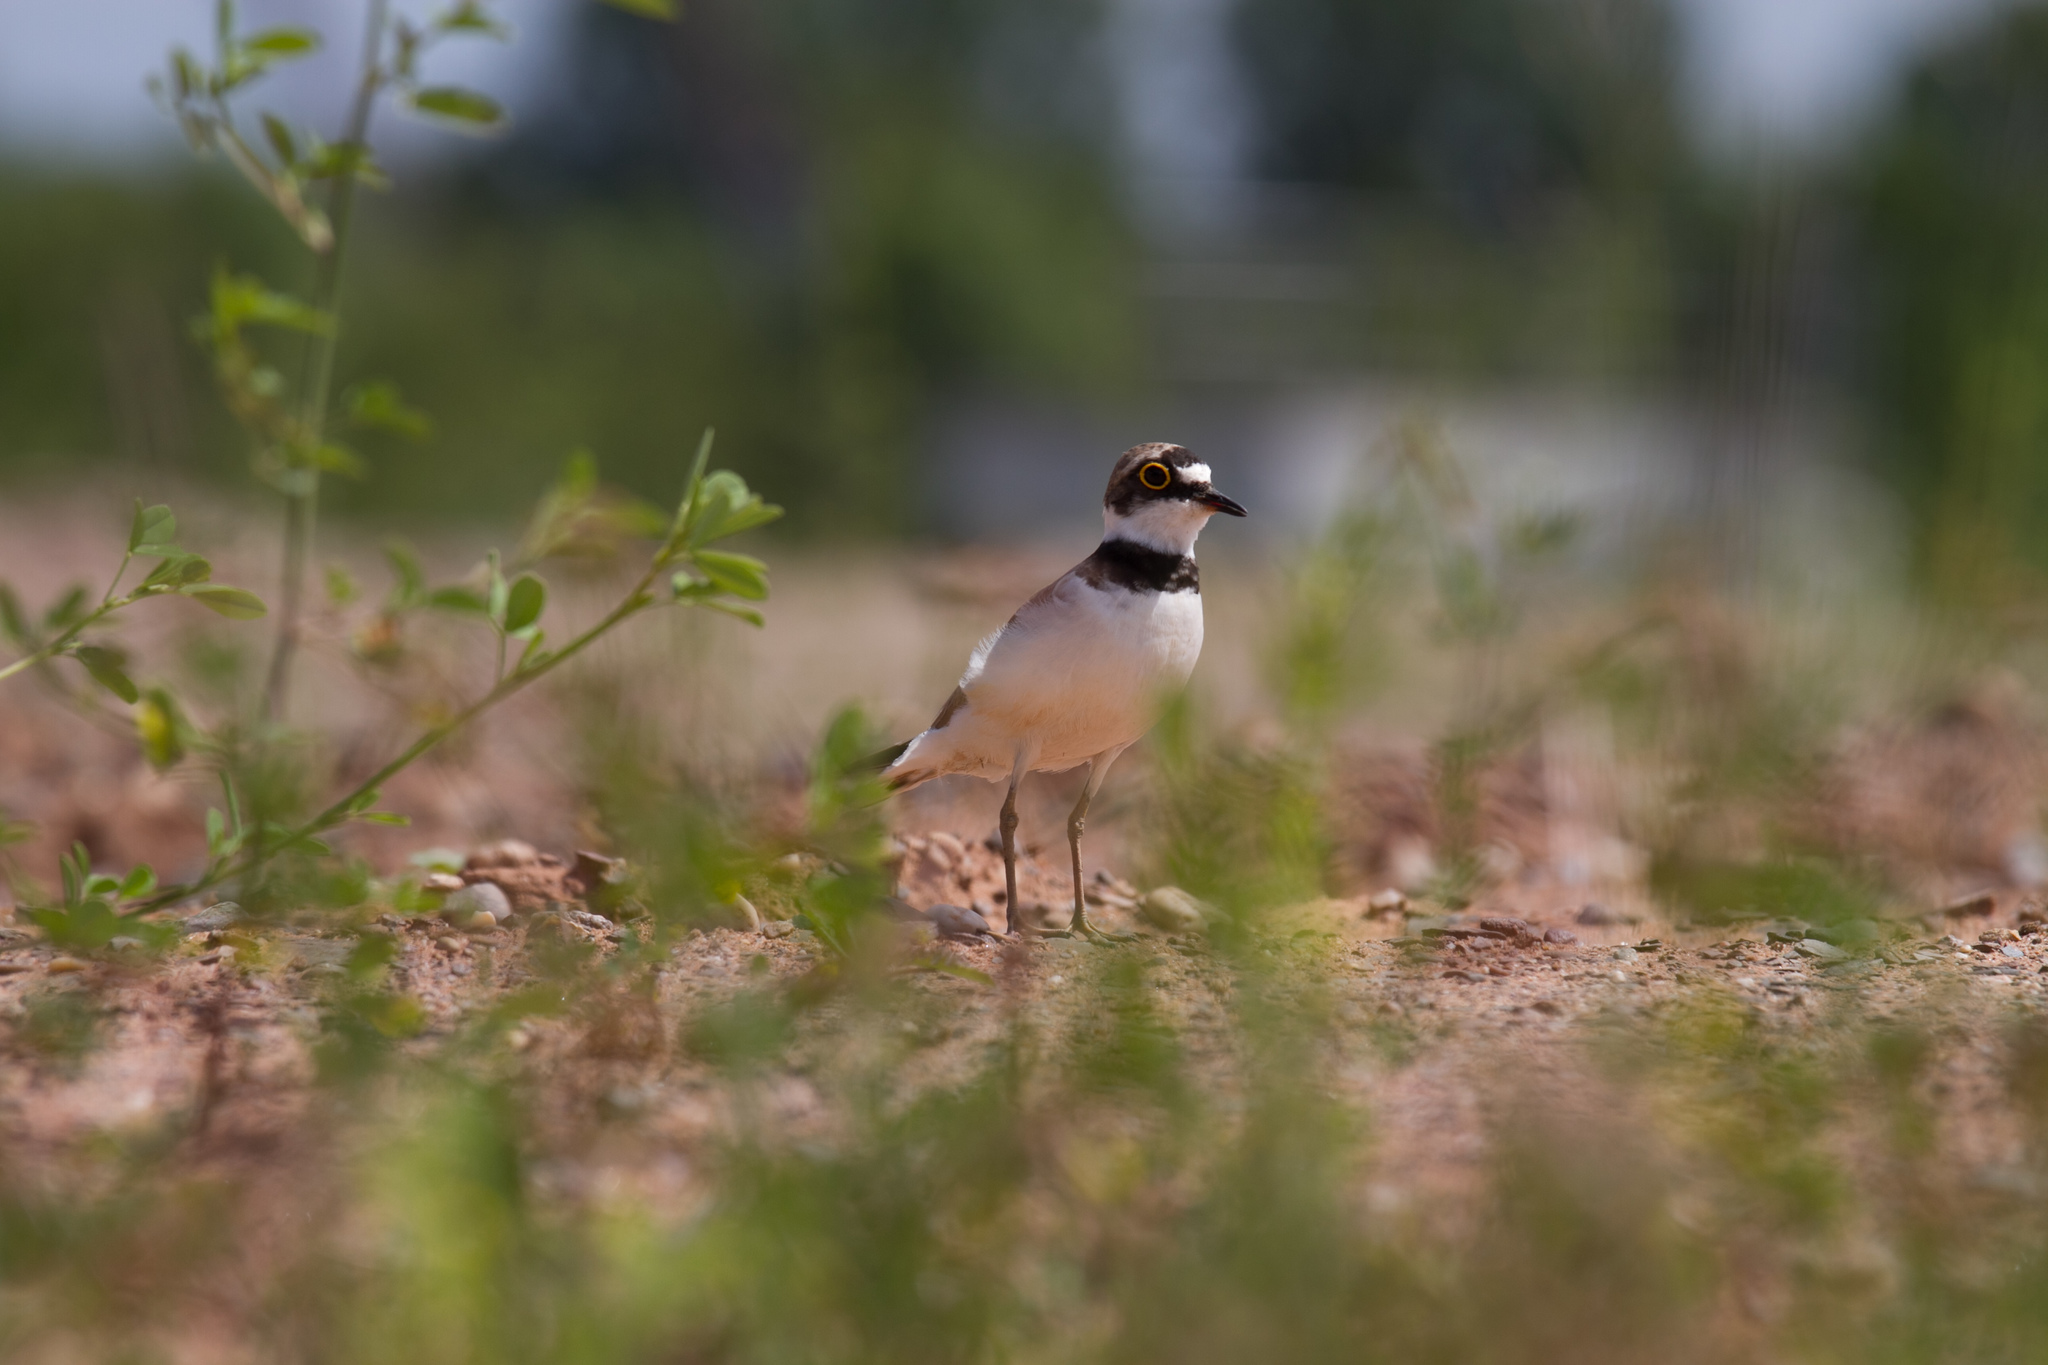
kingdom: Animalia
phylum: Chordata
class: Aves
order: Charadriiformes
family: Charadriidae
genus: Charadrius
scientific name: Charadrius dubius
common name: Little ringed plover
